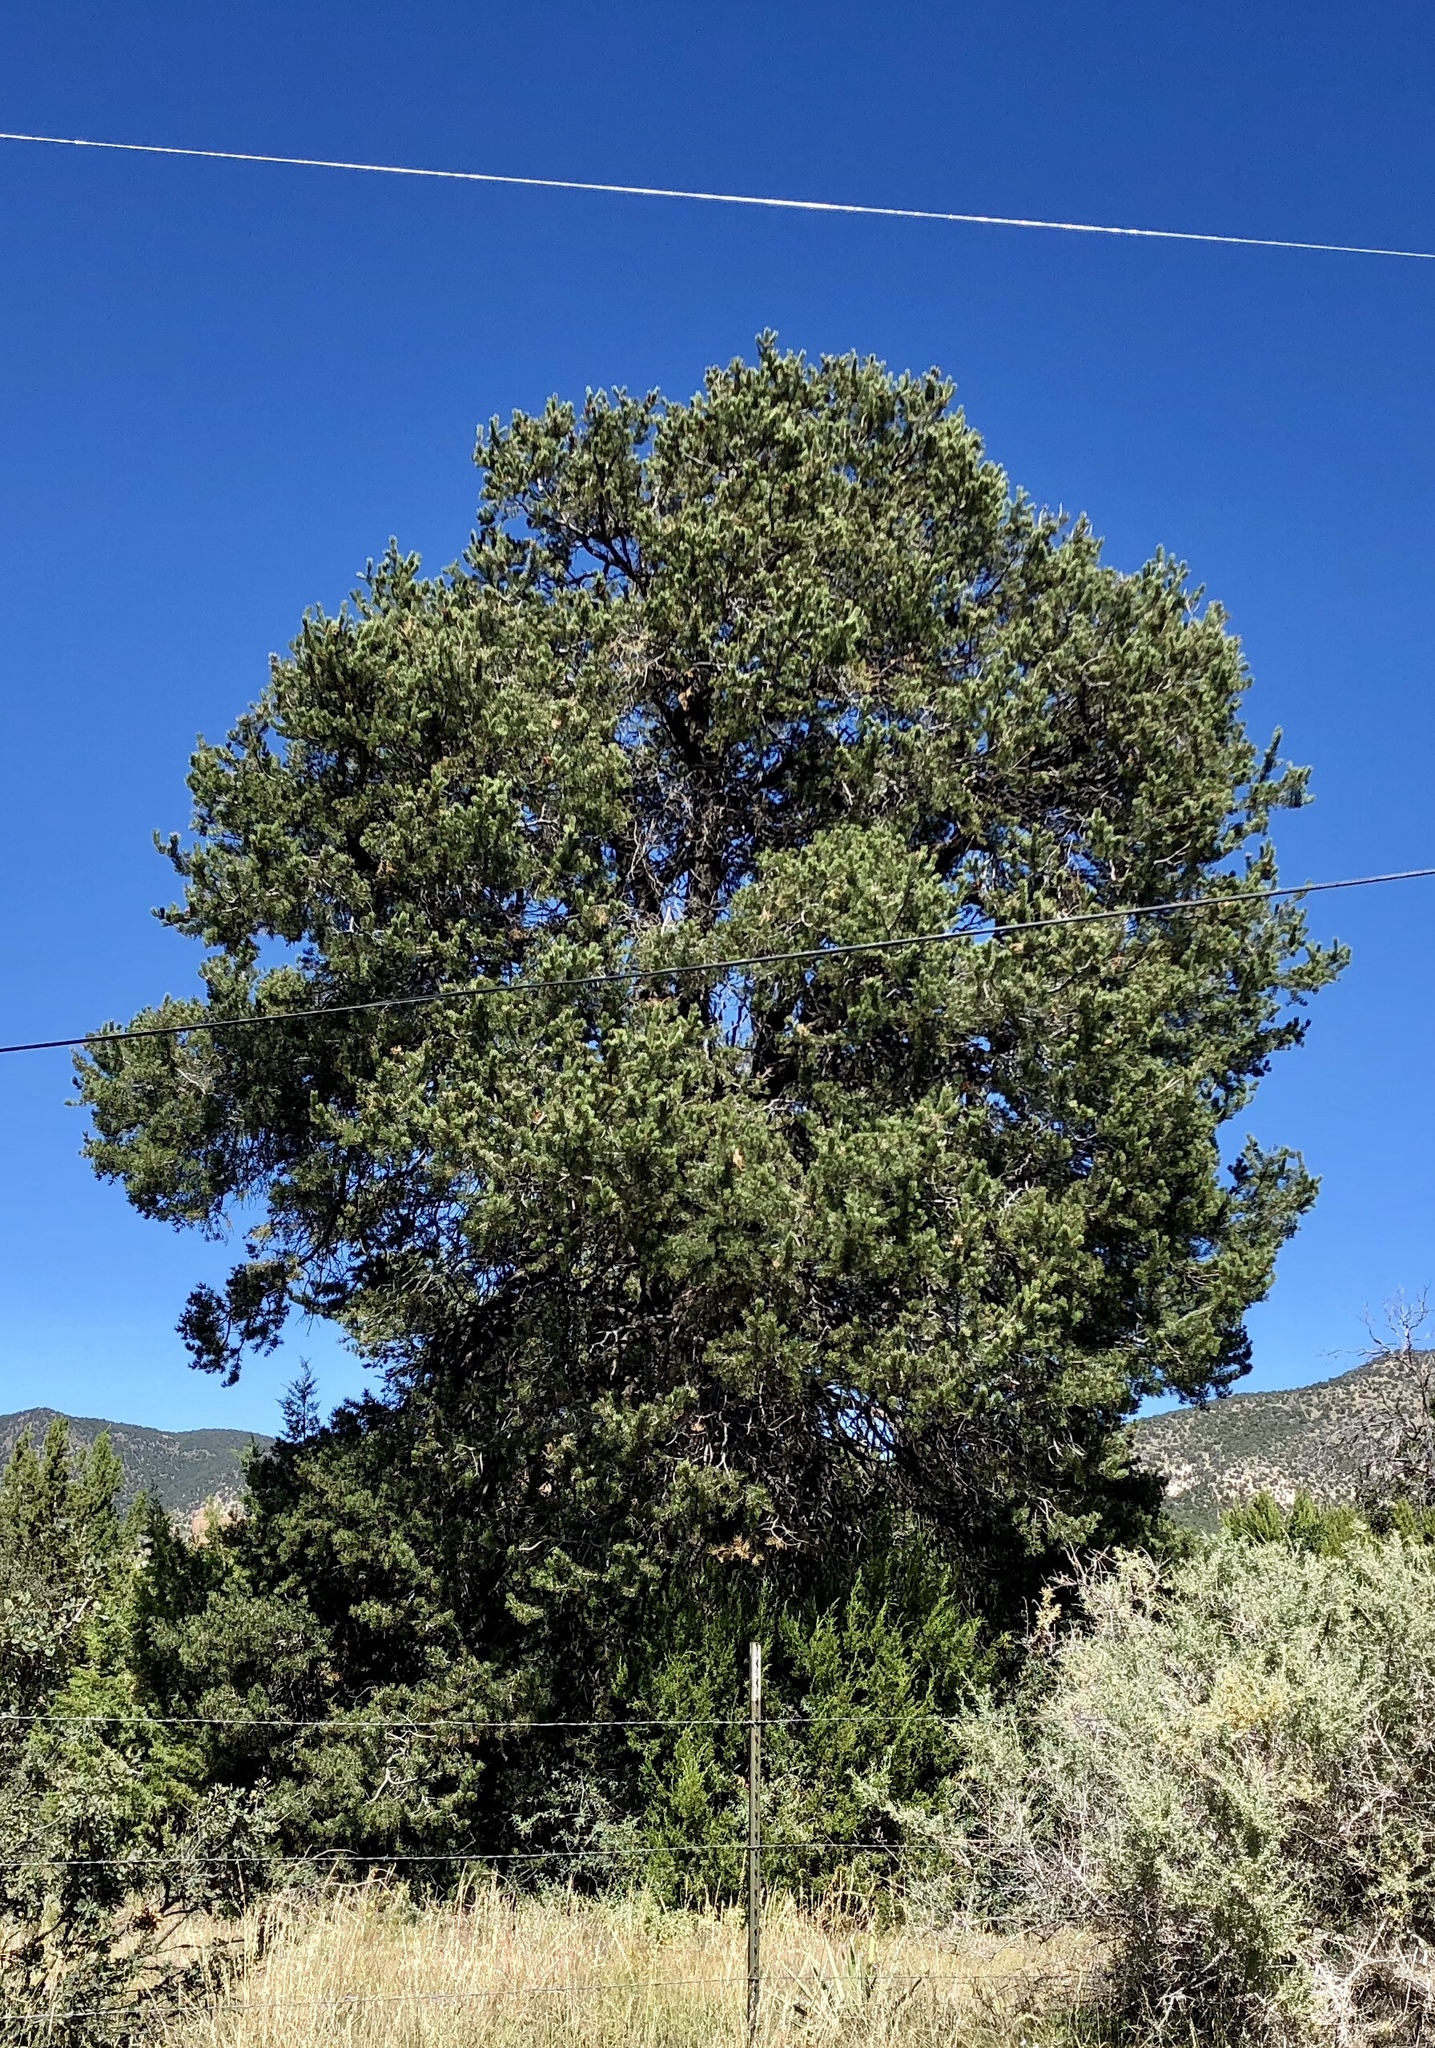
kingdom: Plantae
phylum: Tracheophyta
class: Pinopsida
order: Pinales
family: Pinaceae
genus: Pinus
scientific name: Pinus edulis
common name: Colorado pinyon
